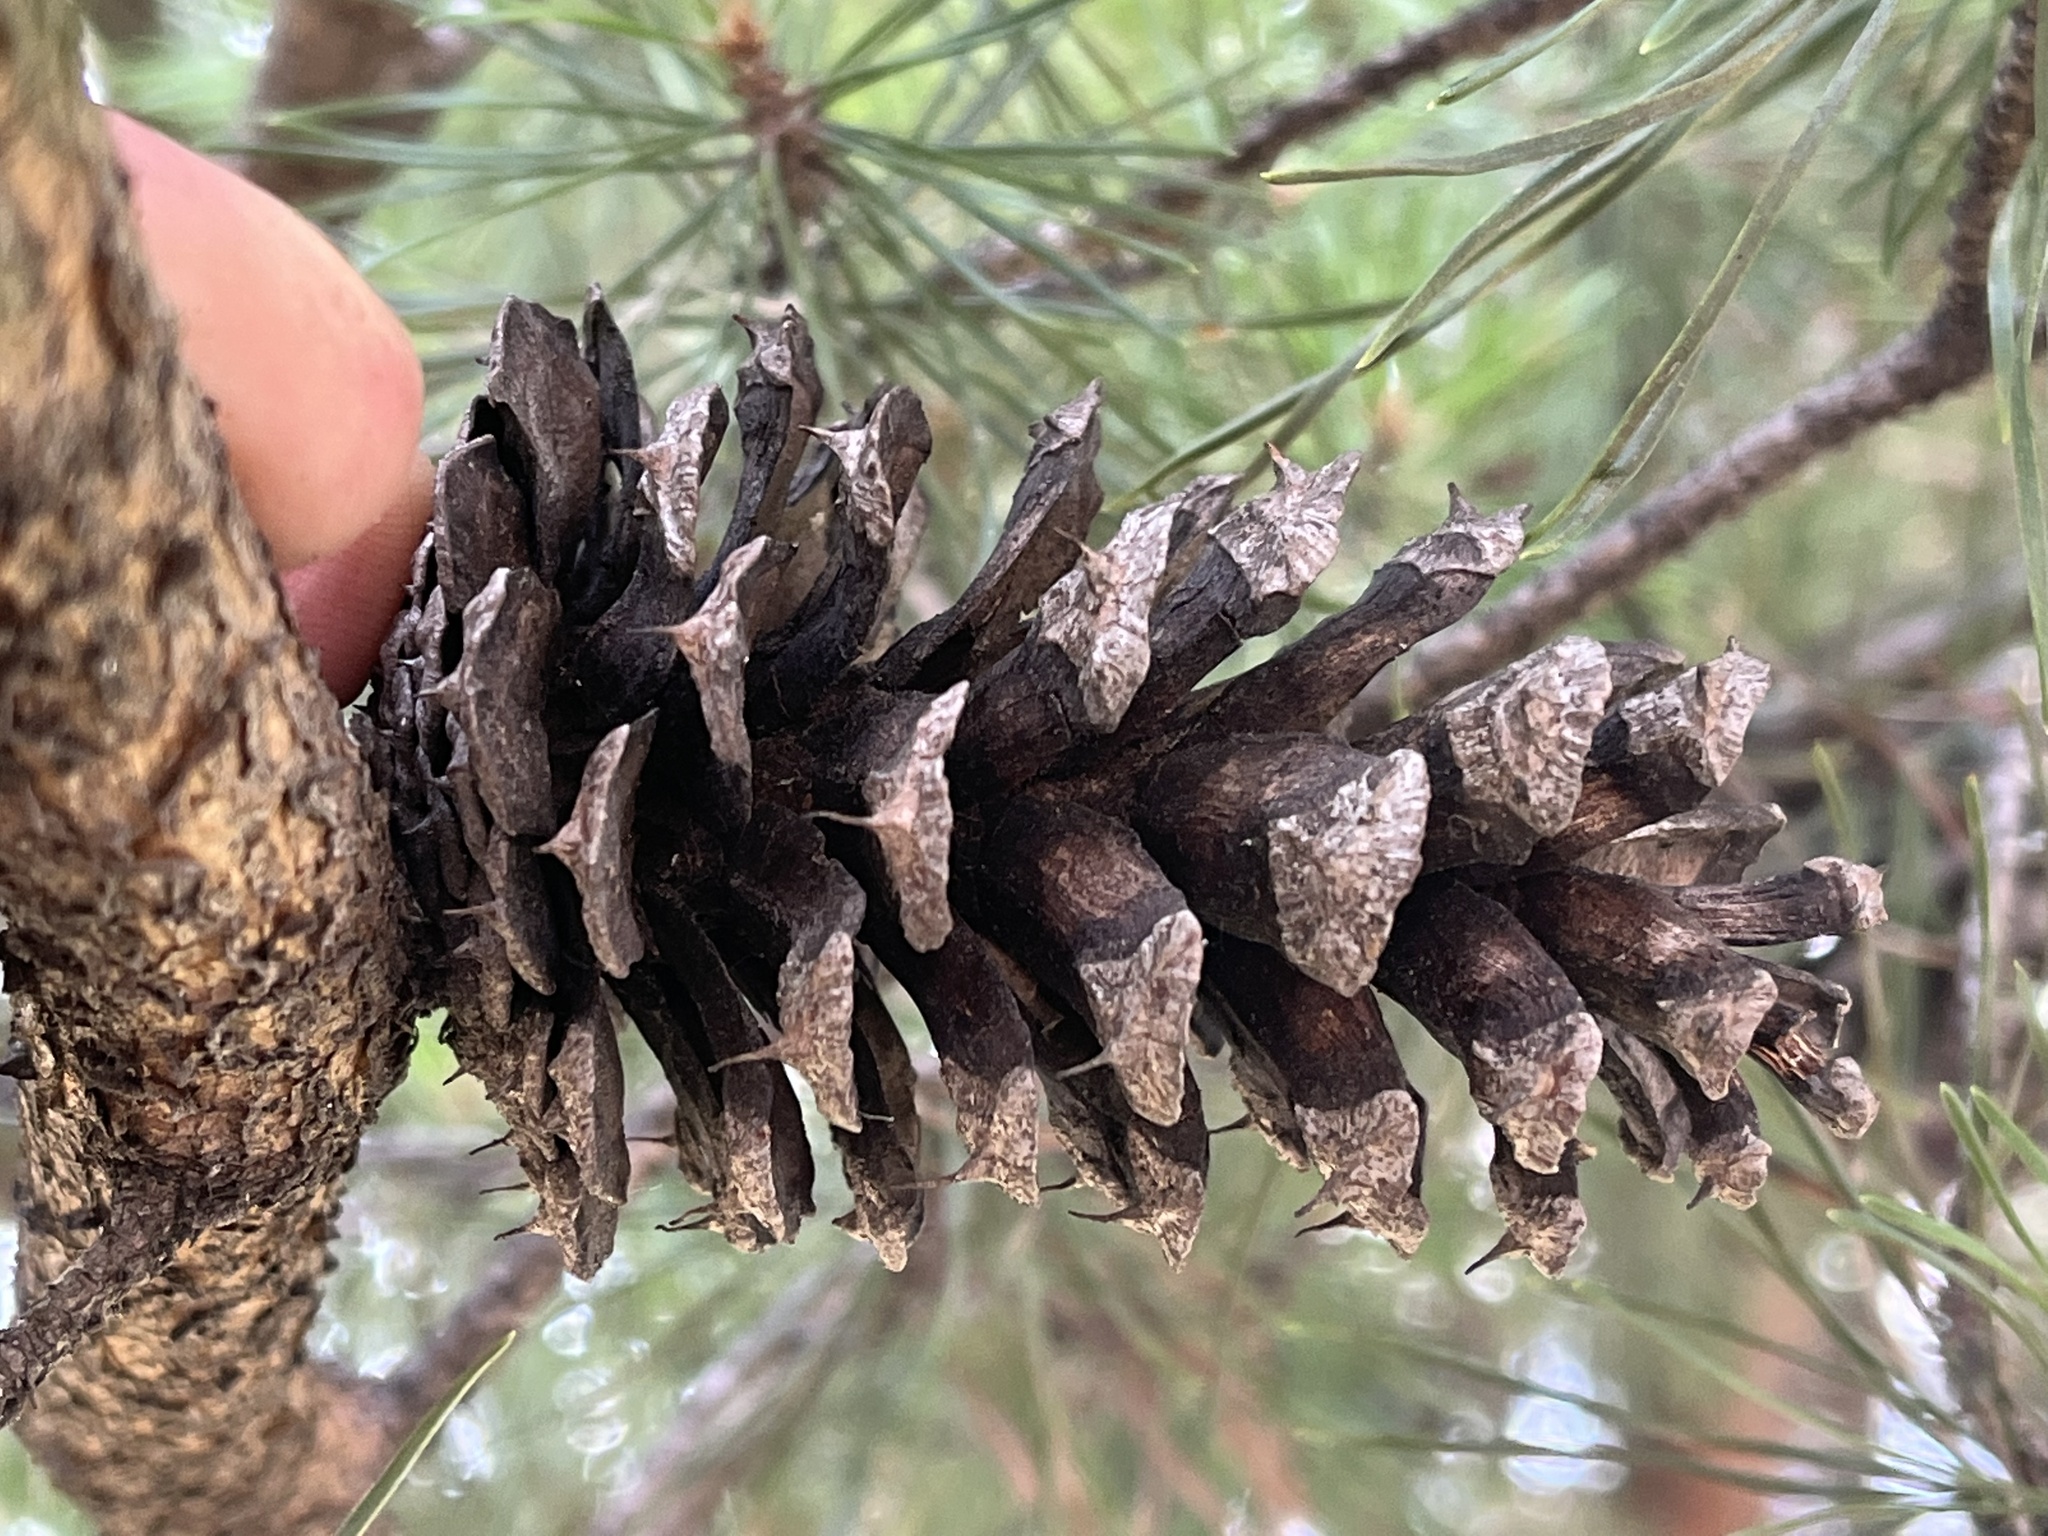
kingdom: Plantae
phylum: Tracheophyta
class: Pinopsida
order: Pinales
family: Pinaceae
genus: Pinus
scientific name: Pinus virginiana
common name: Scrub pine
